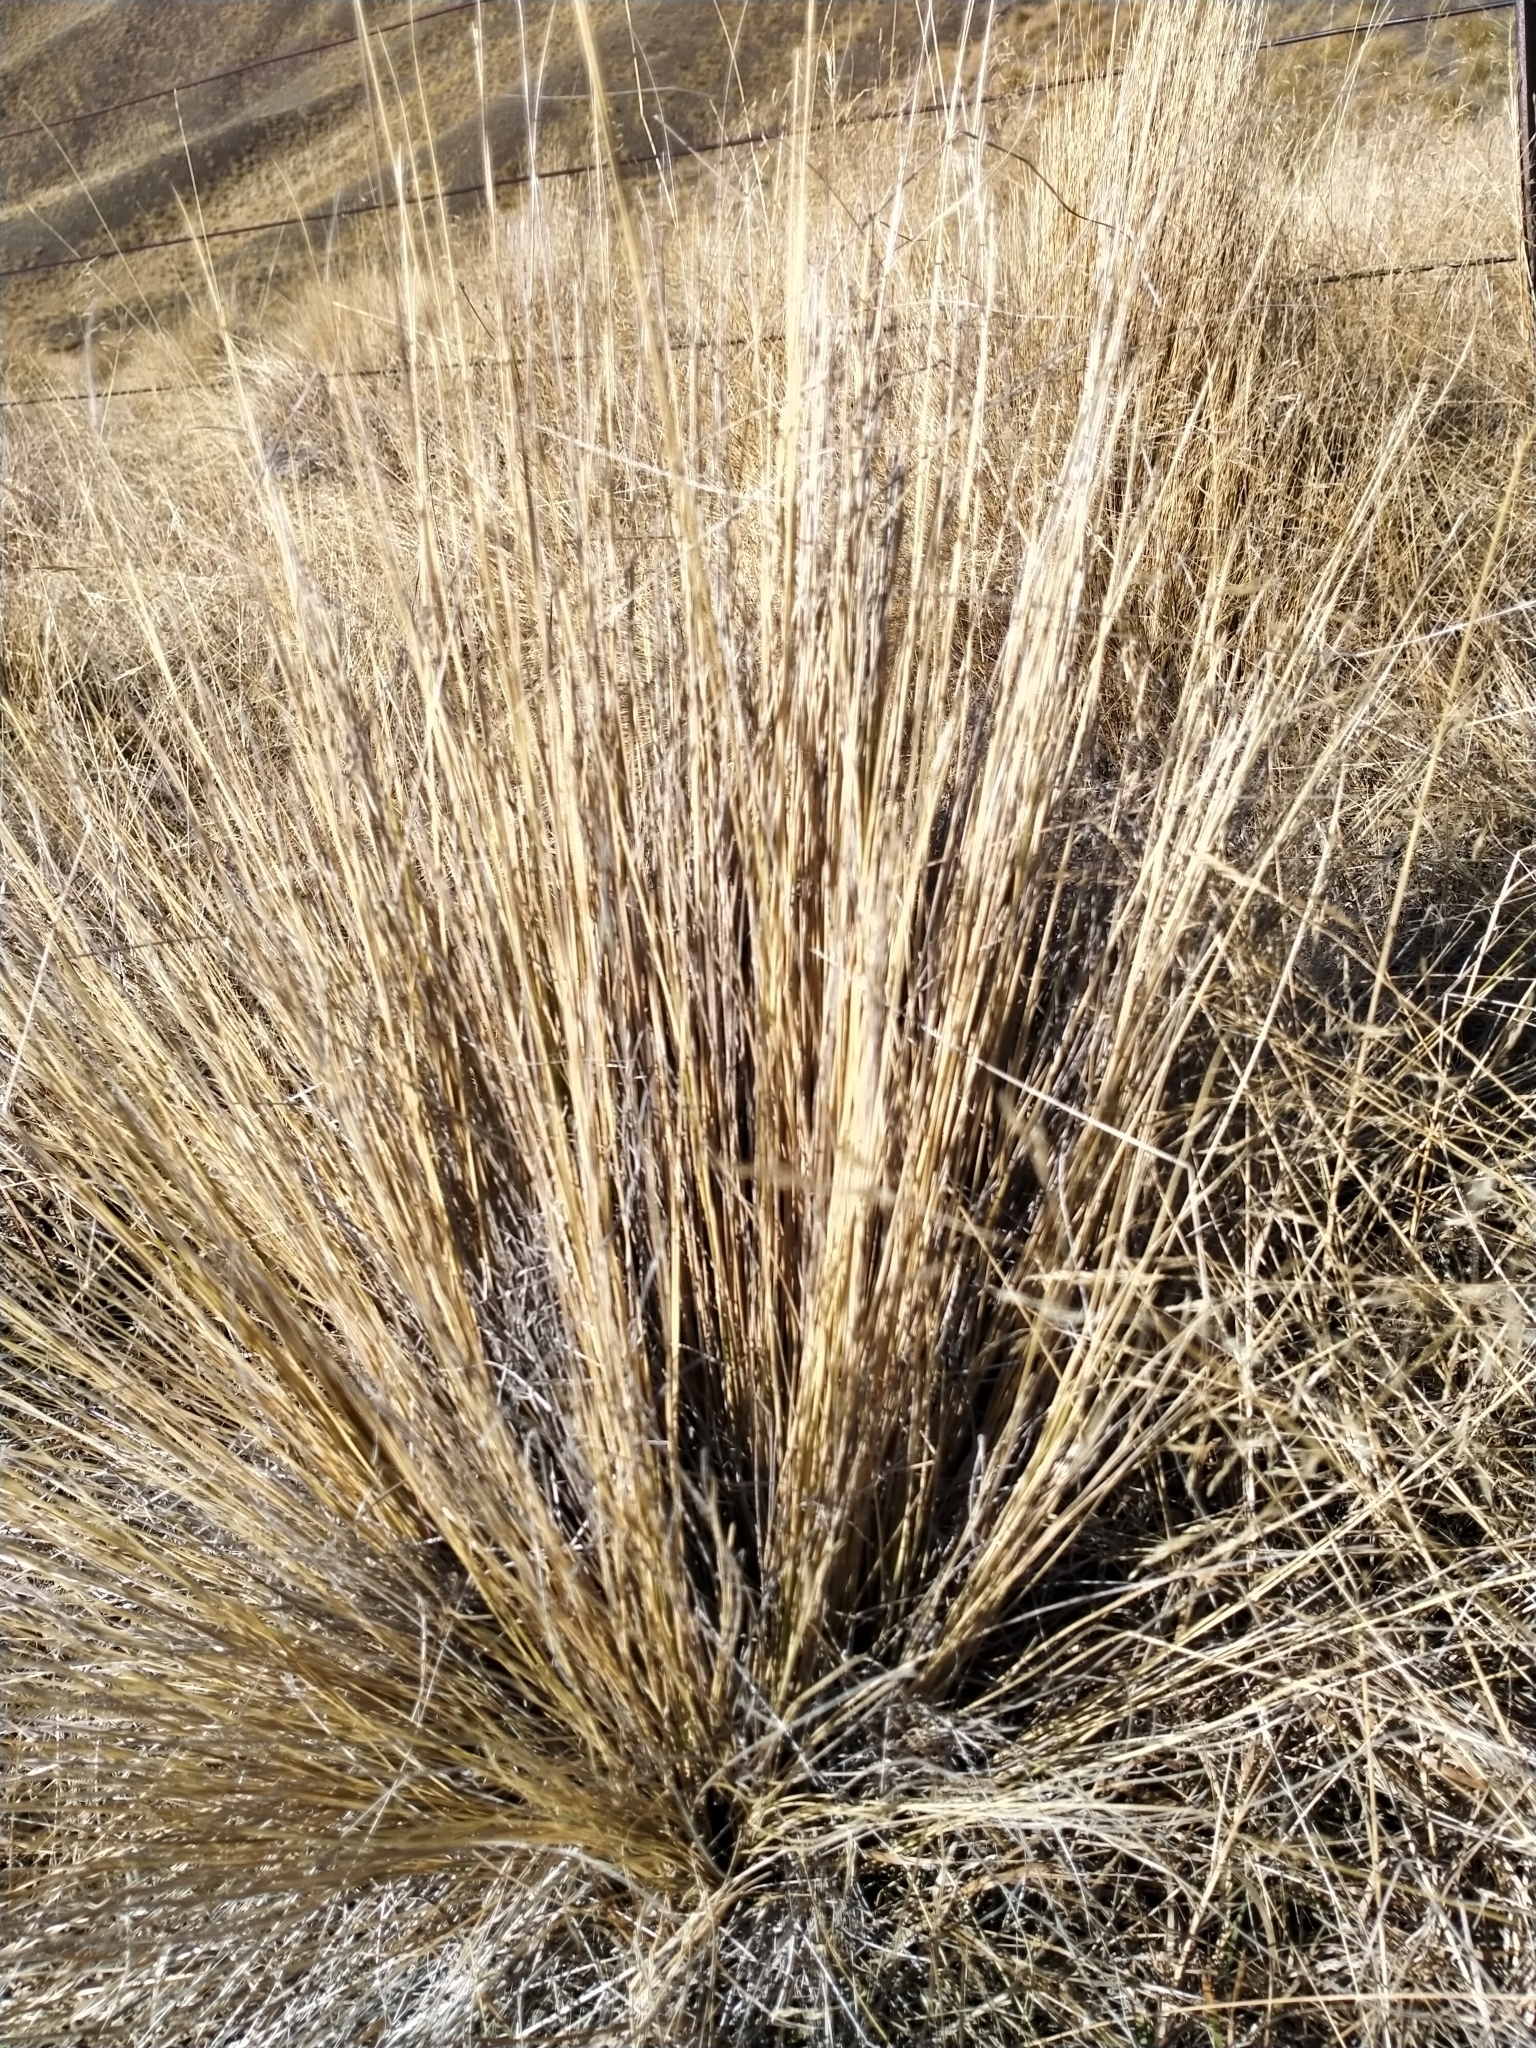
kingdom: Plantae
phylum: Tracheophyta
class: Liliopsida
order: Poales
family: Poaceae
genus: Festuca
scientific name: Festuca novae-zelandiae
